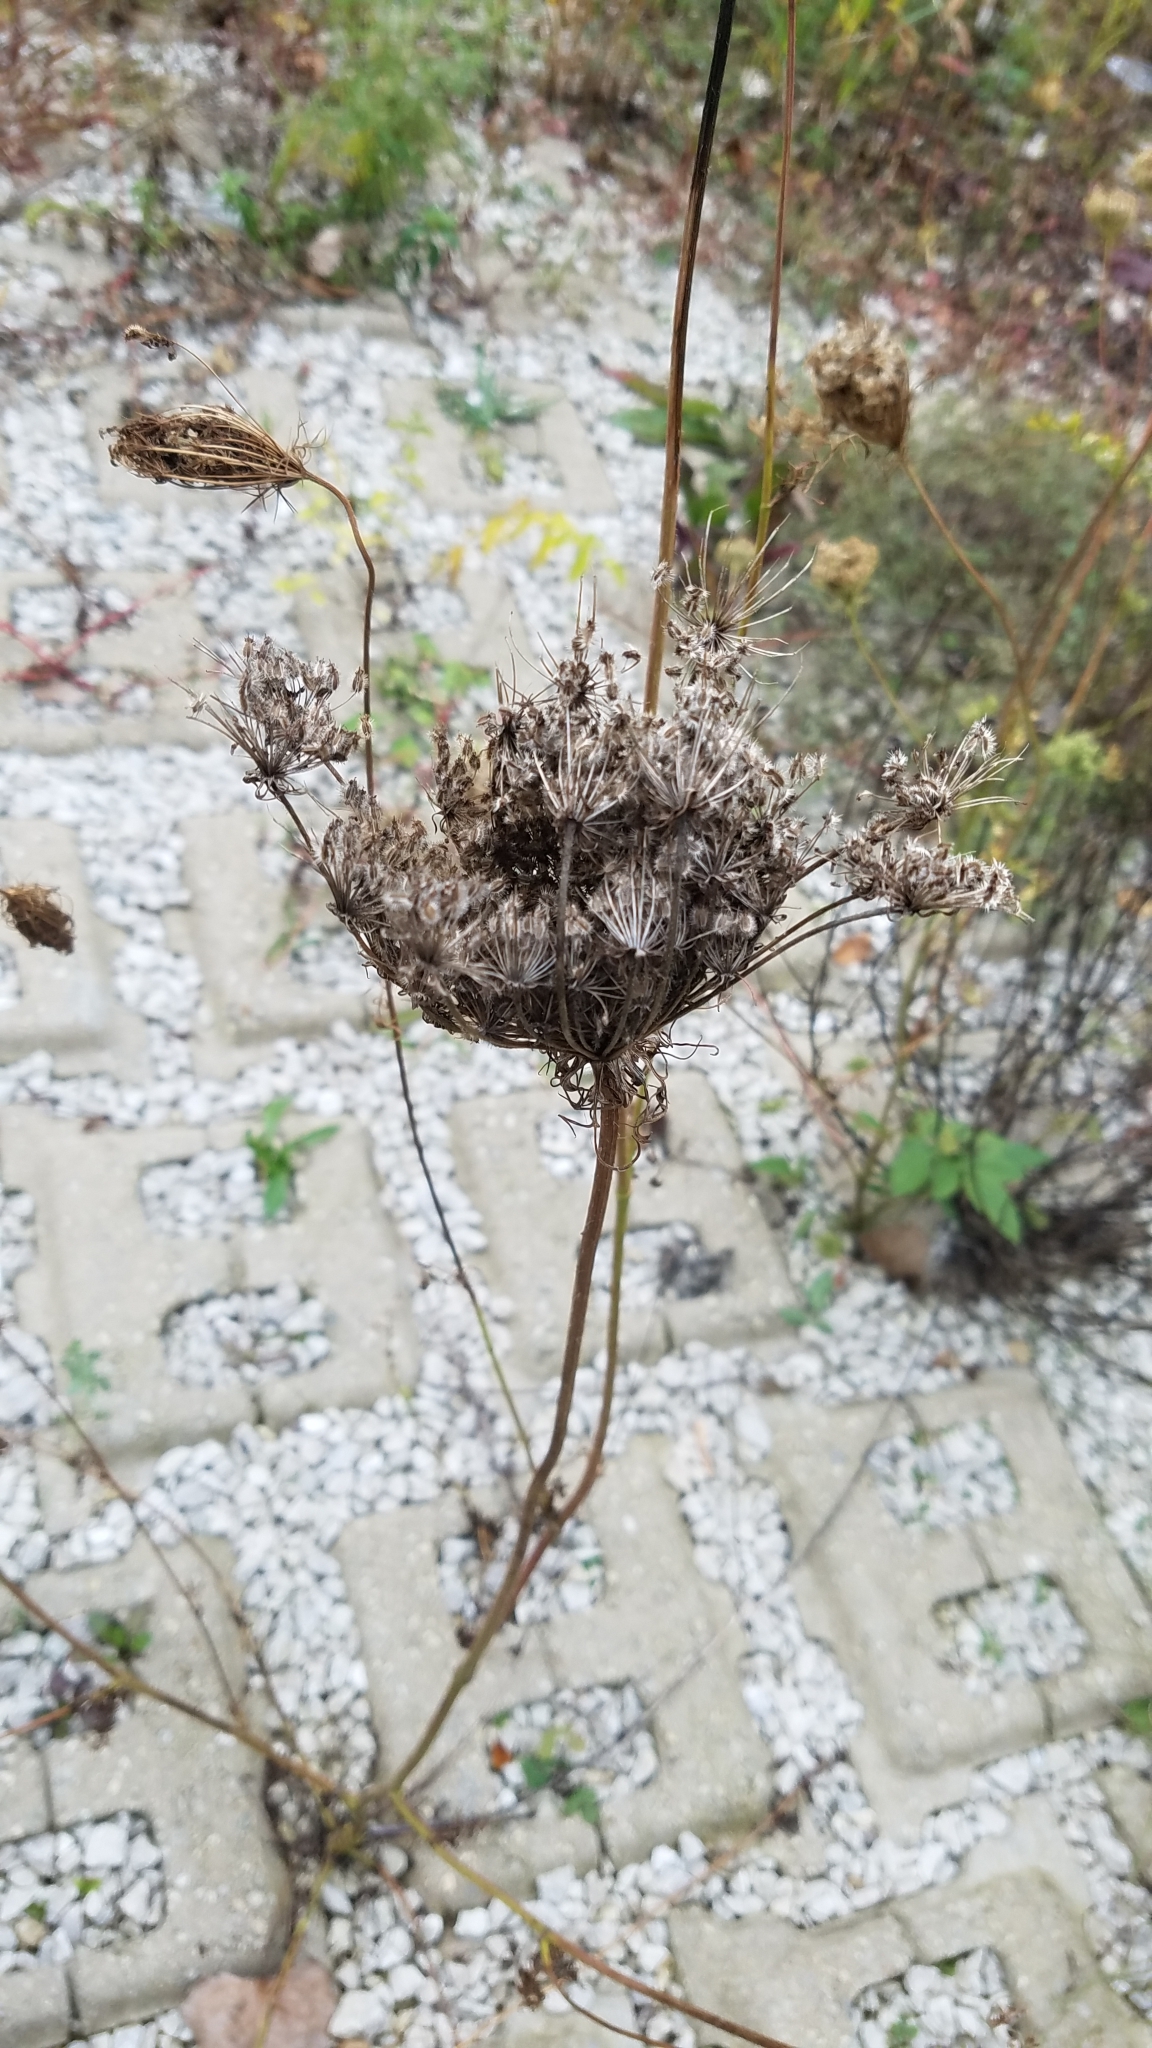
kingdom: Plantae
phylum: Tracheophyta
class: Magnoliopsida
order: Apiales
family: Apiaceae
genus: Daucus
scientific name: Daucus carota
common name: Wild carrot
